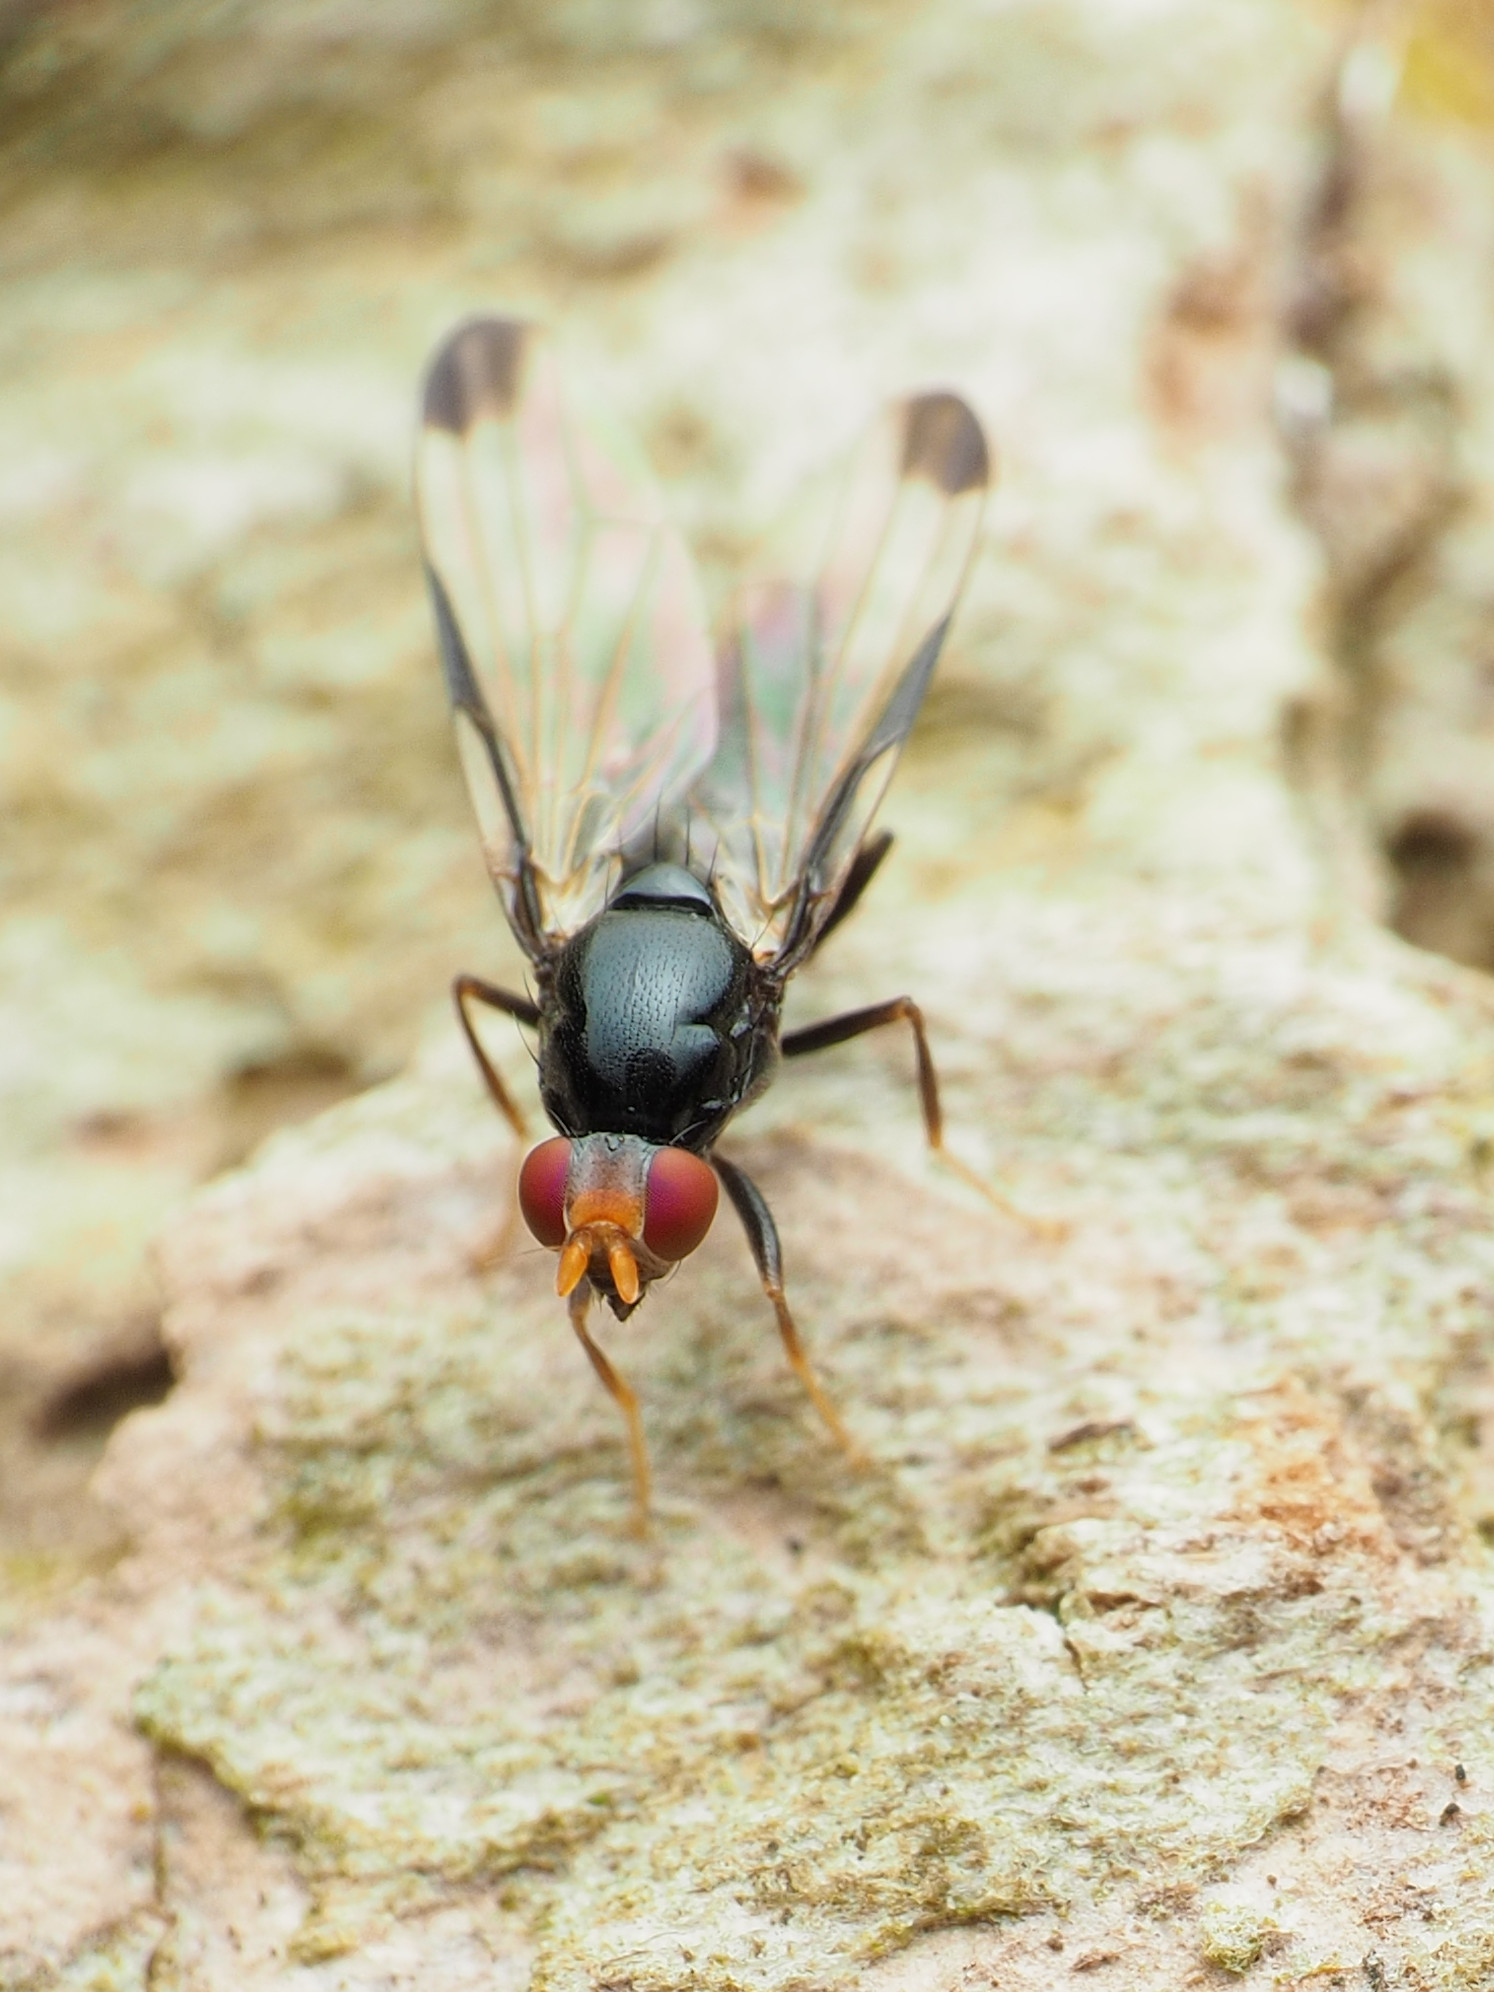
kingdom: Animalia
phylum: Arthropoda
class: Insecta
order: Diptera
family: Ulidiidae
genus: Pseudoseioptera
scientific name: Pseudoseioptera albipes
